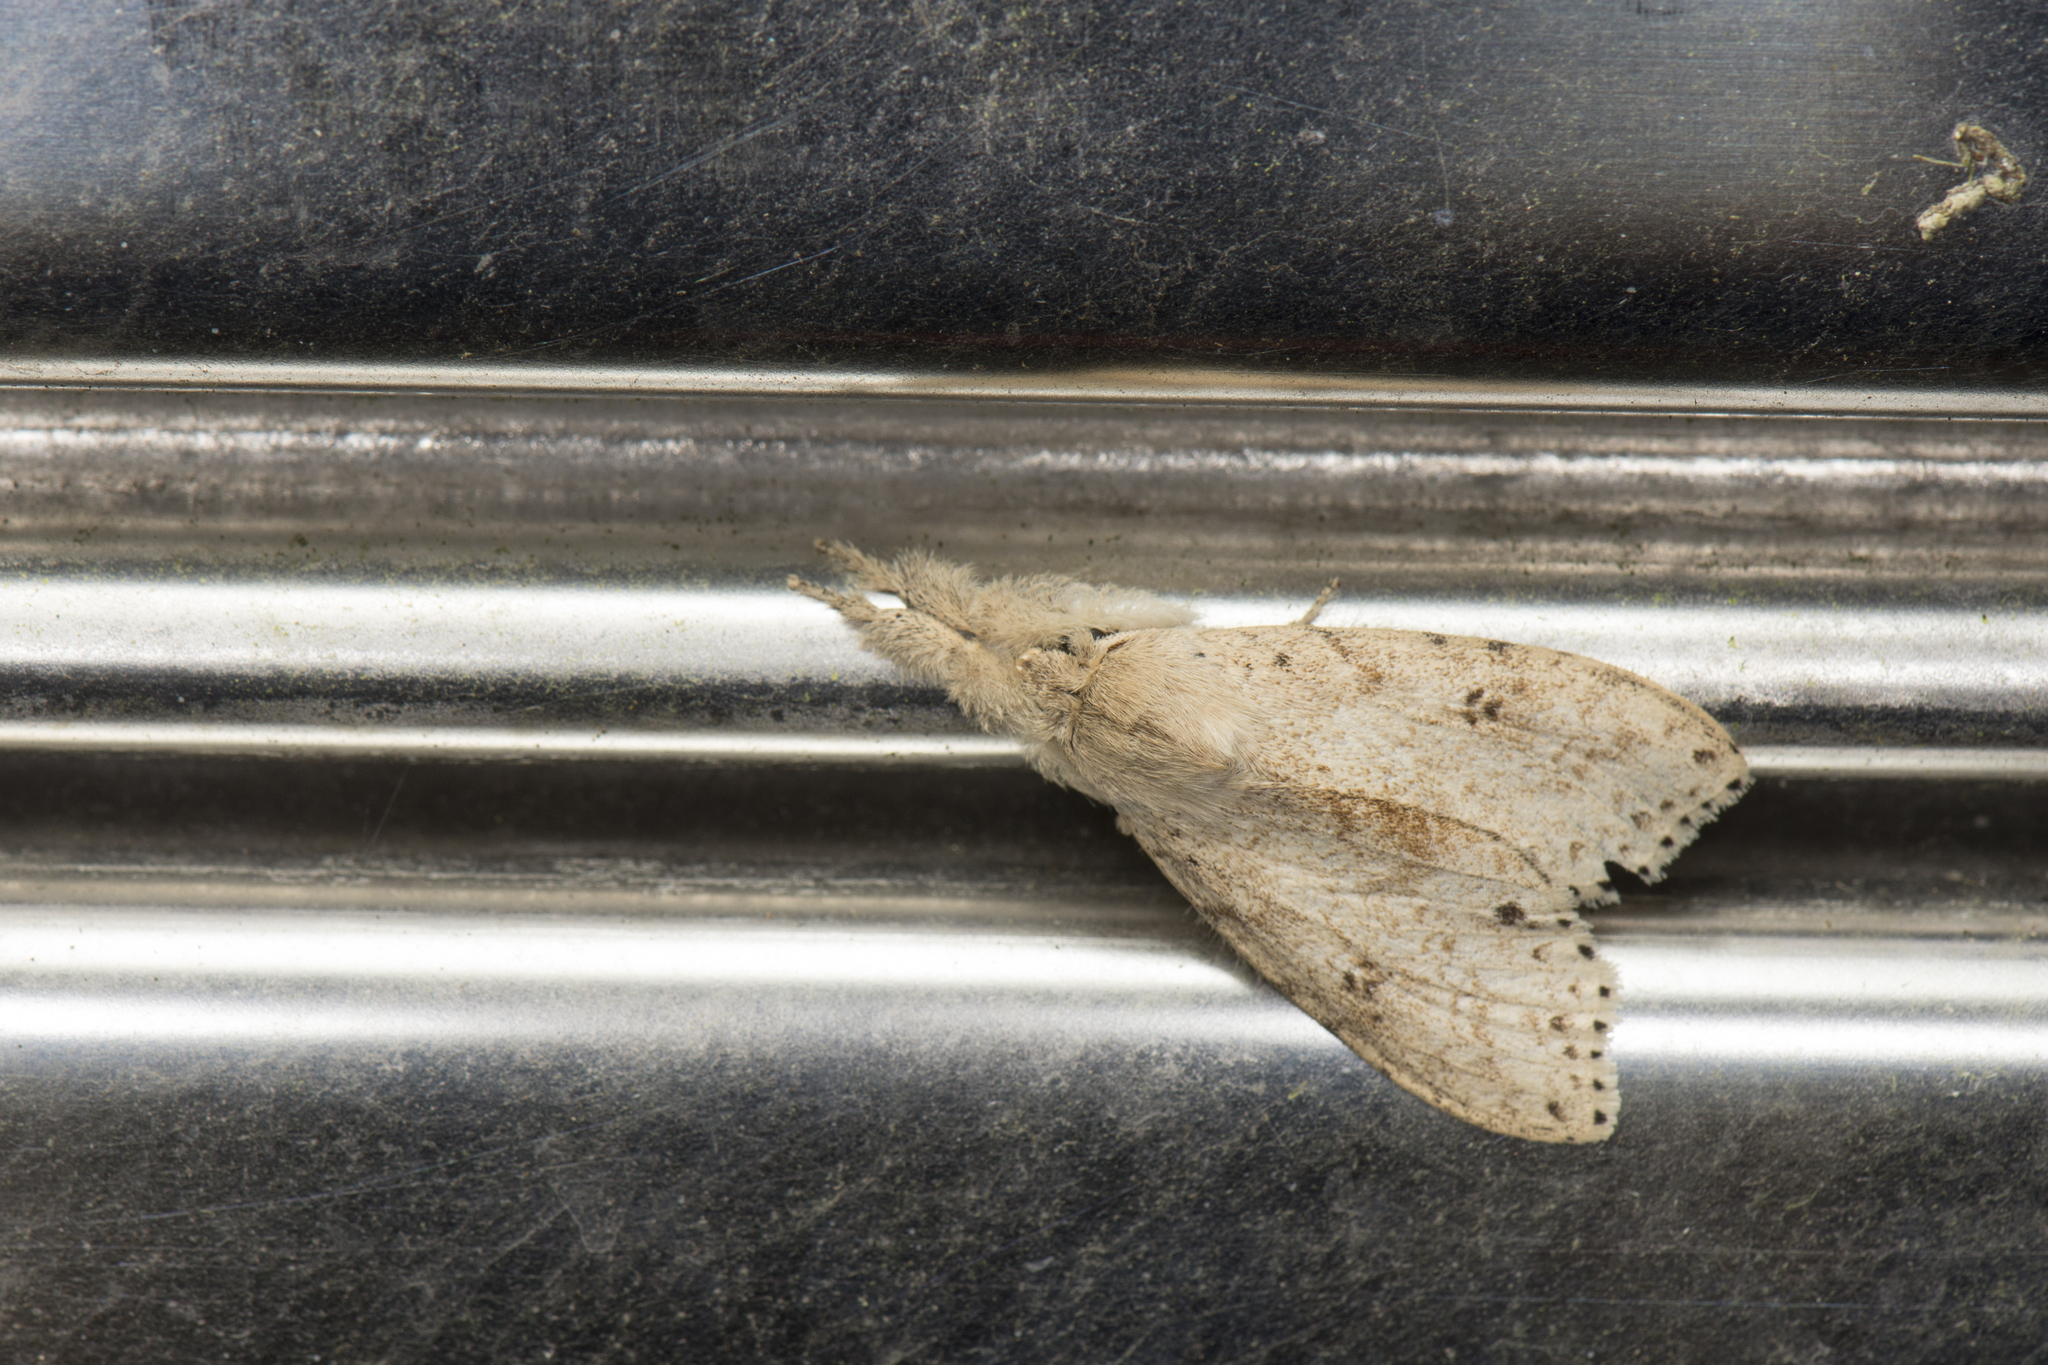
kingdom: Animalia
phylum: Arthropoda
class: Insecta
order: Lepidoptera
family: Erebidae
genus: Calliteara
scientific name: Calliteara angulata
